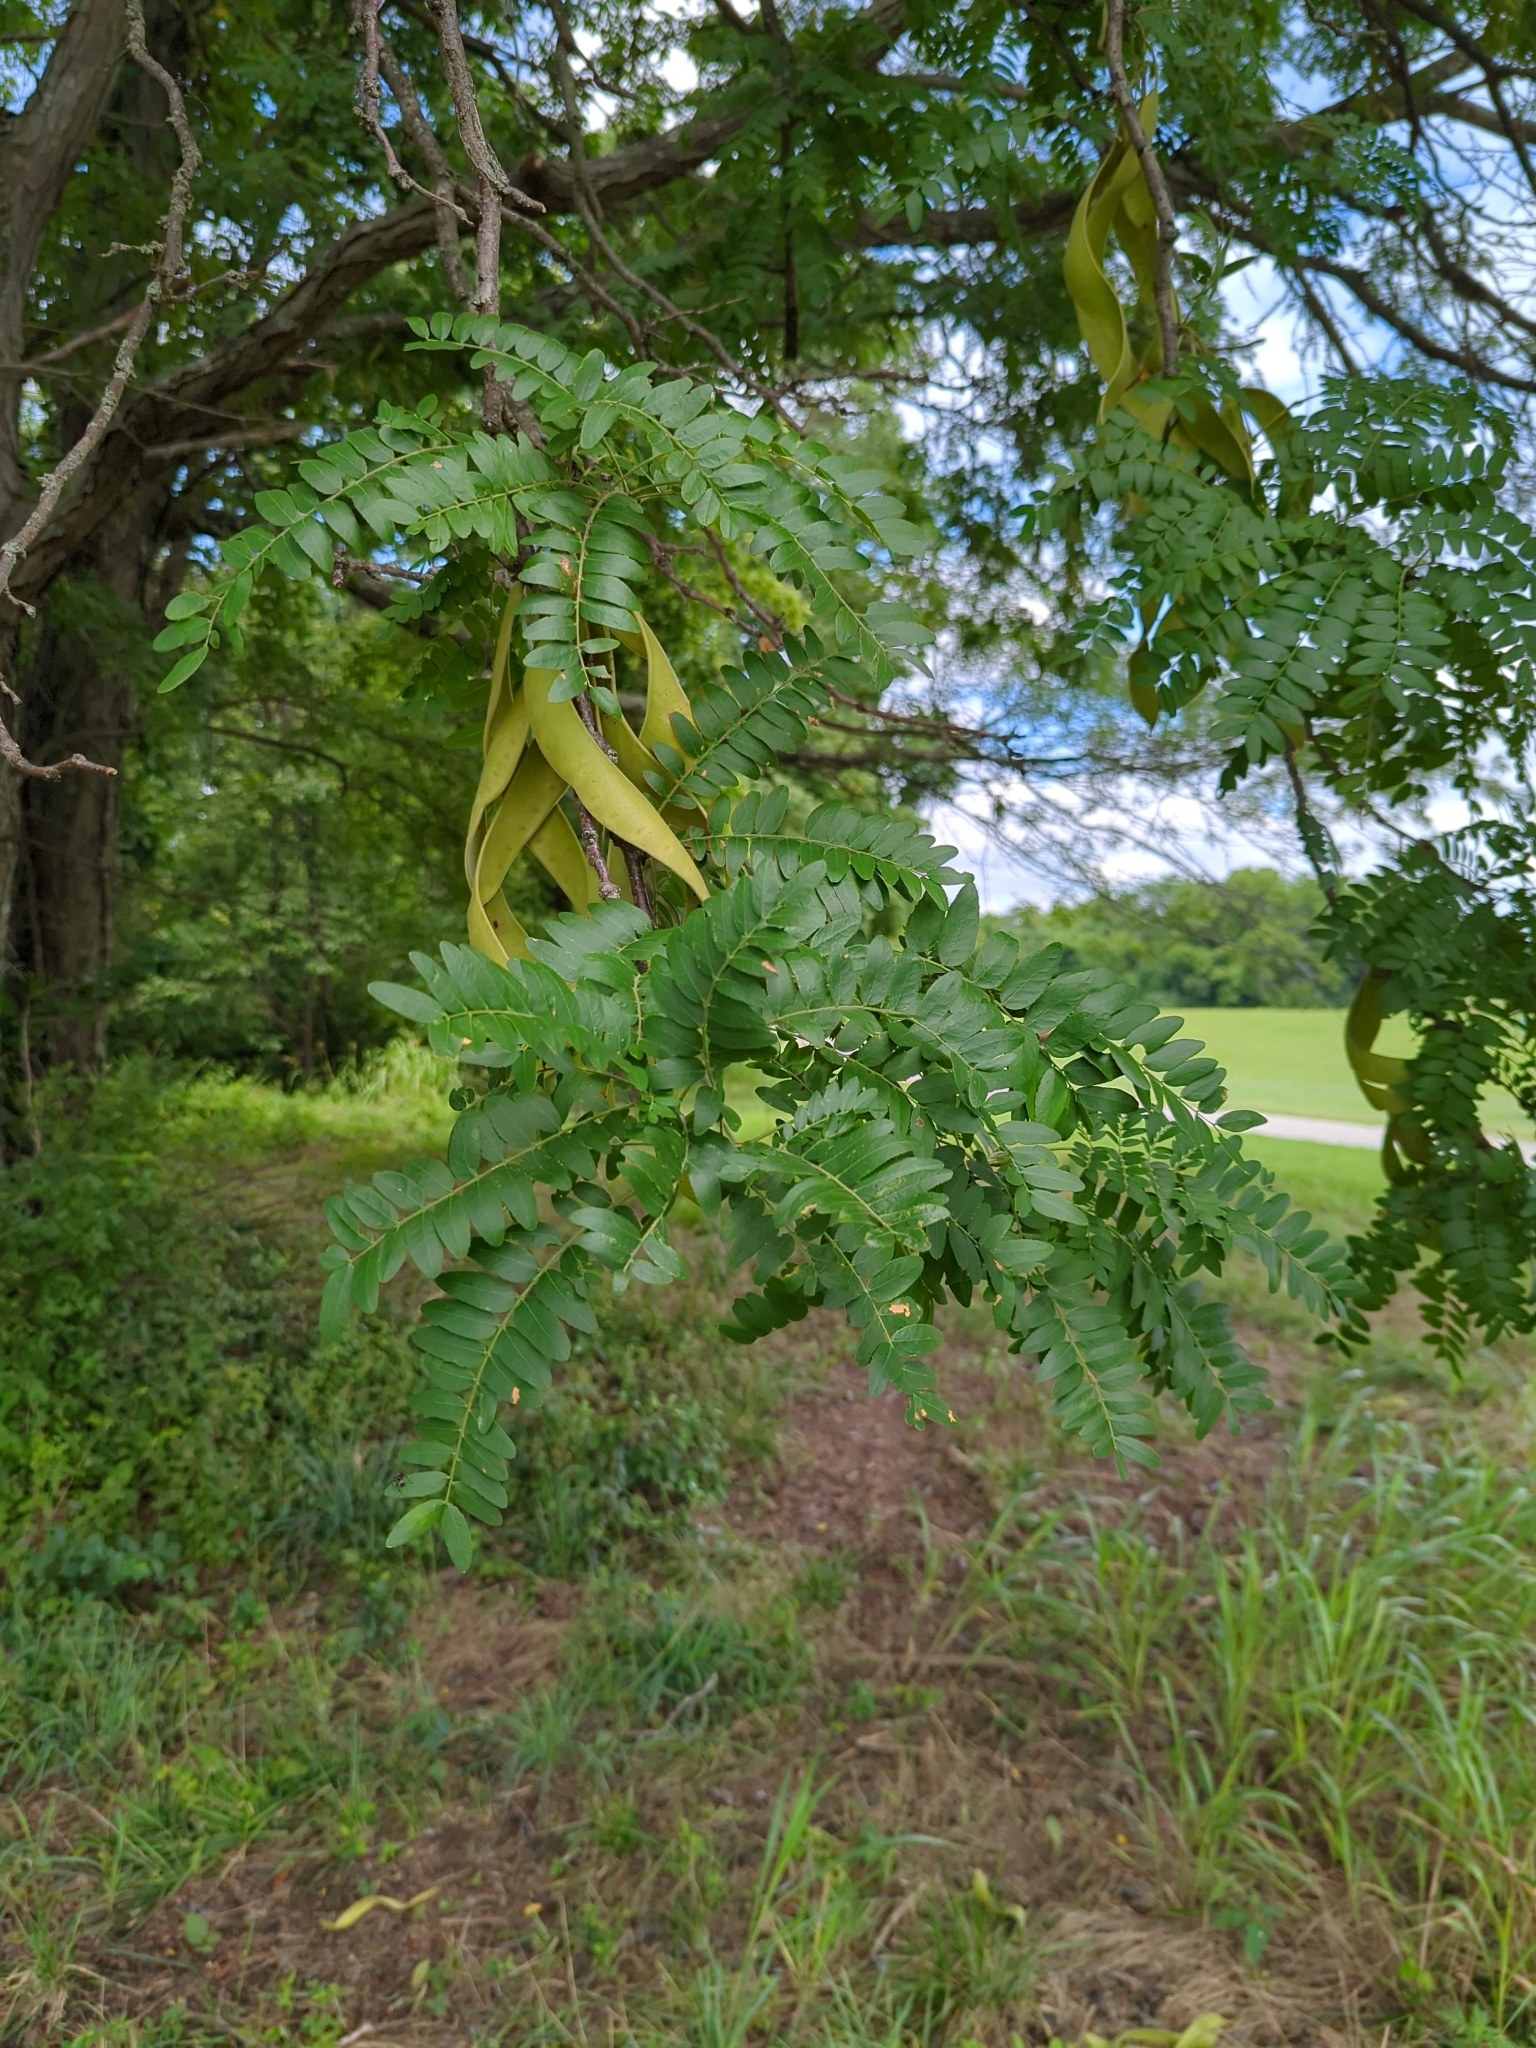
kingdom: Plantae
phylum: Tracheophyta
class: Magnoliopsida
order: Fabales
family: Fabaceae
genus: Gleditsia
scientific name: Gleditsia triacanthos
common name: Common honeylocust
